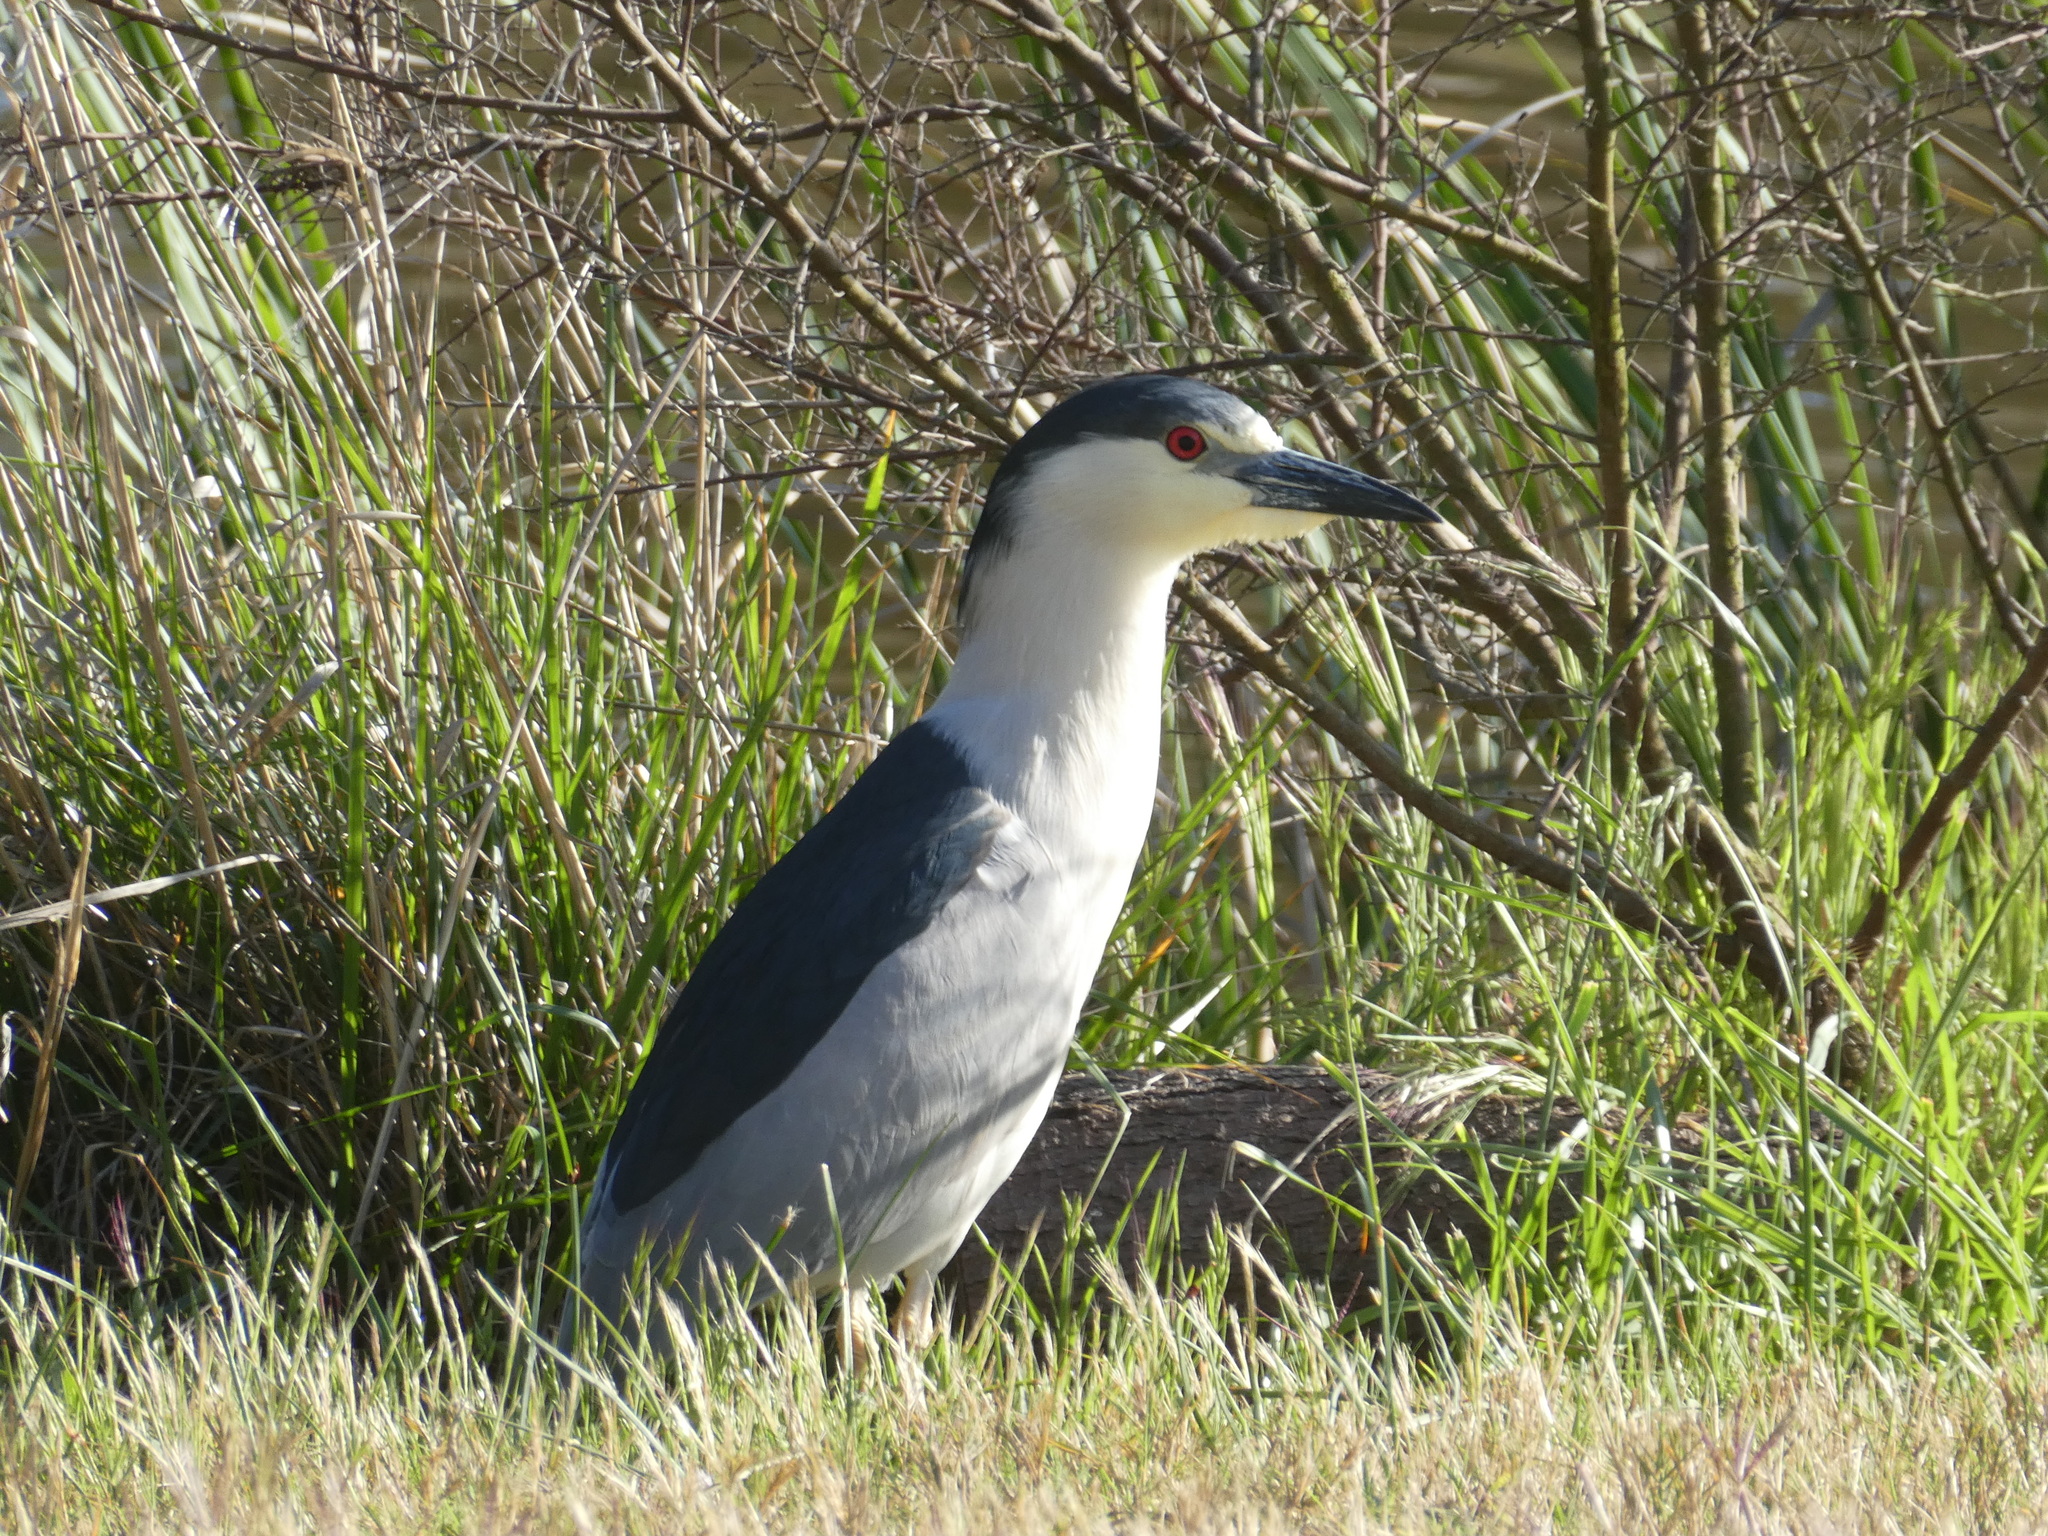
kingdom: Animalia
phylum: Chordata
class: Aves
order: Pelecaniformes
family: Ardeidae
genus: Nycticorax
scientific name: Nycticorax nycticorax
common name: Black-crowned night heron
